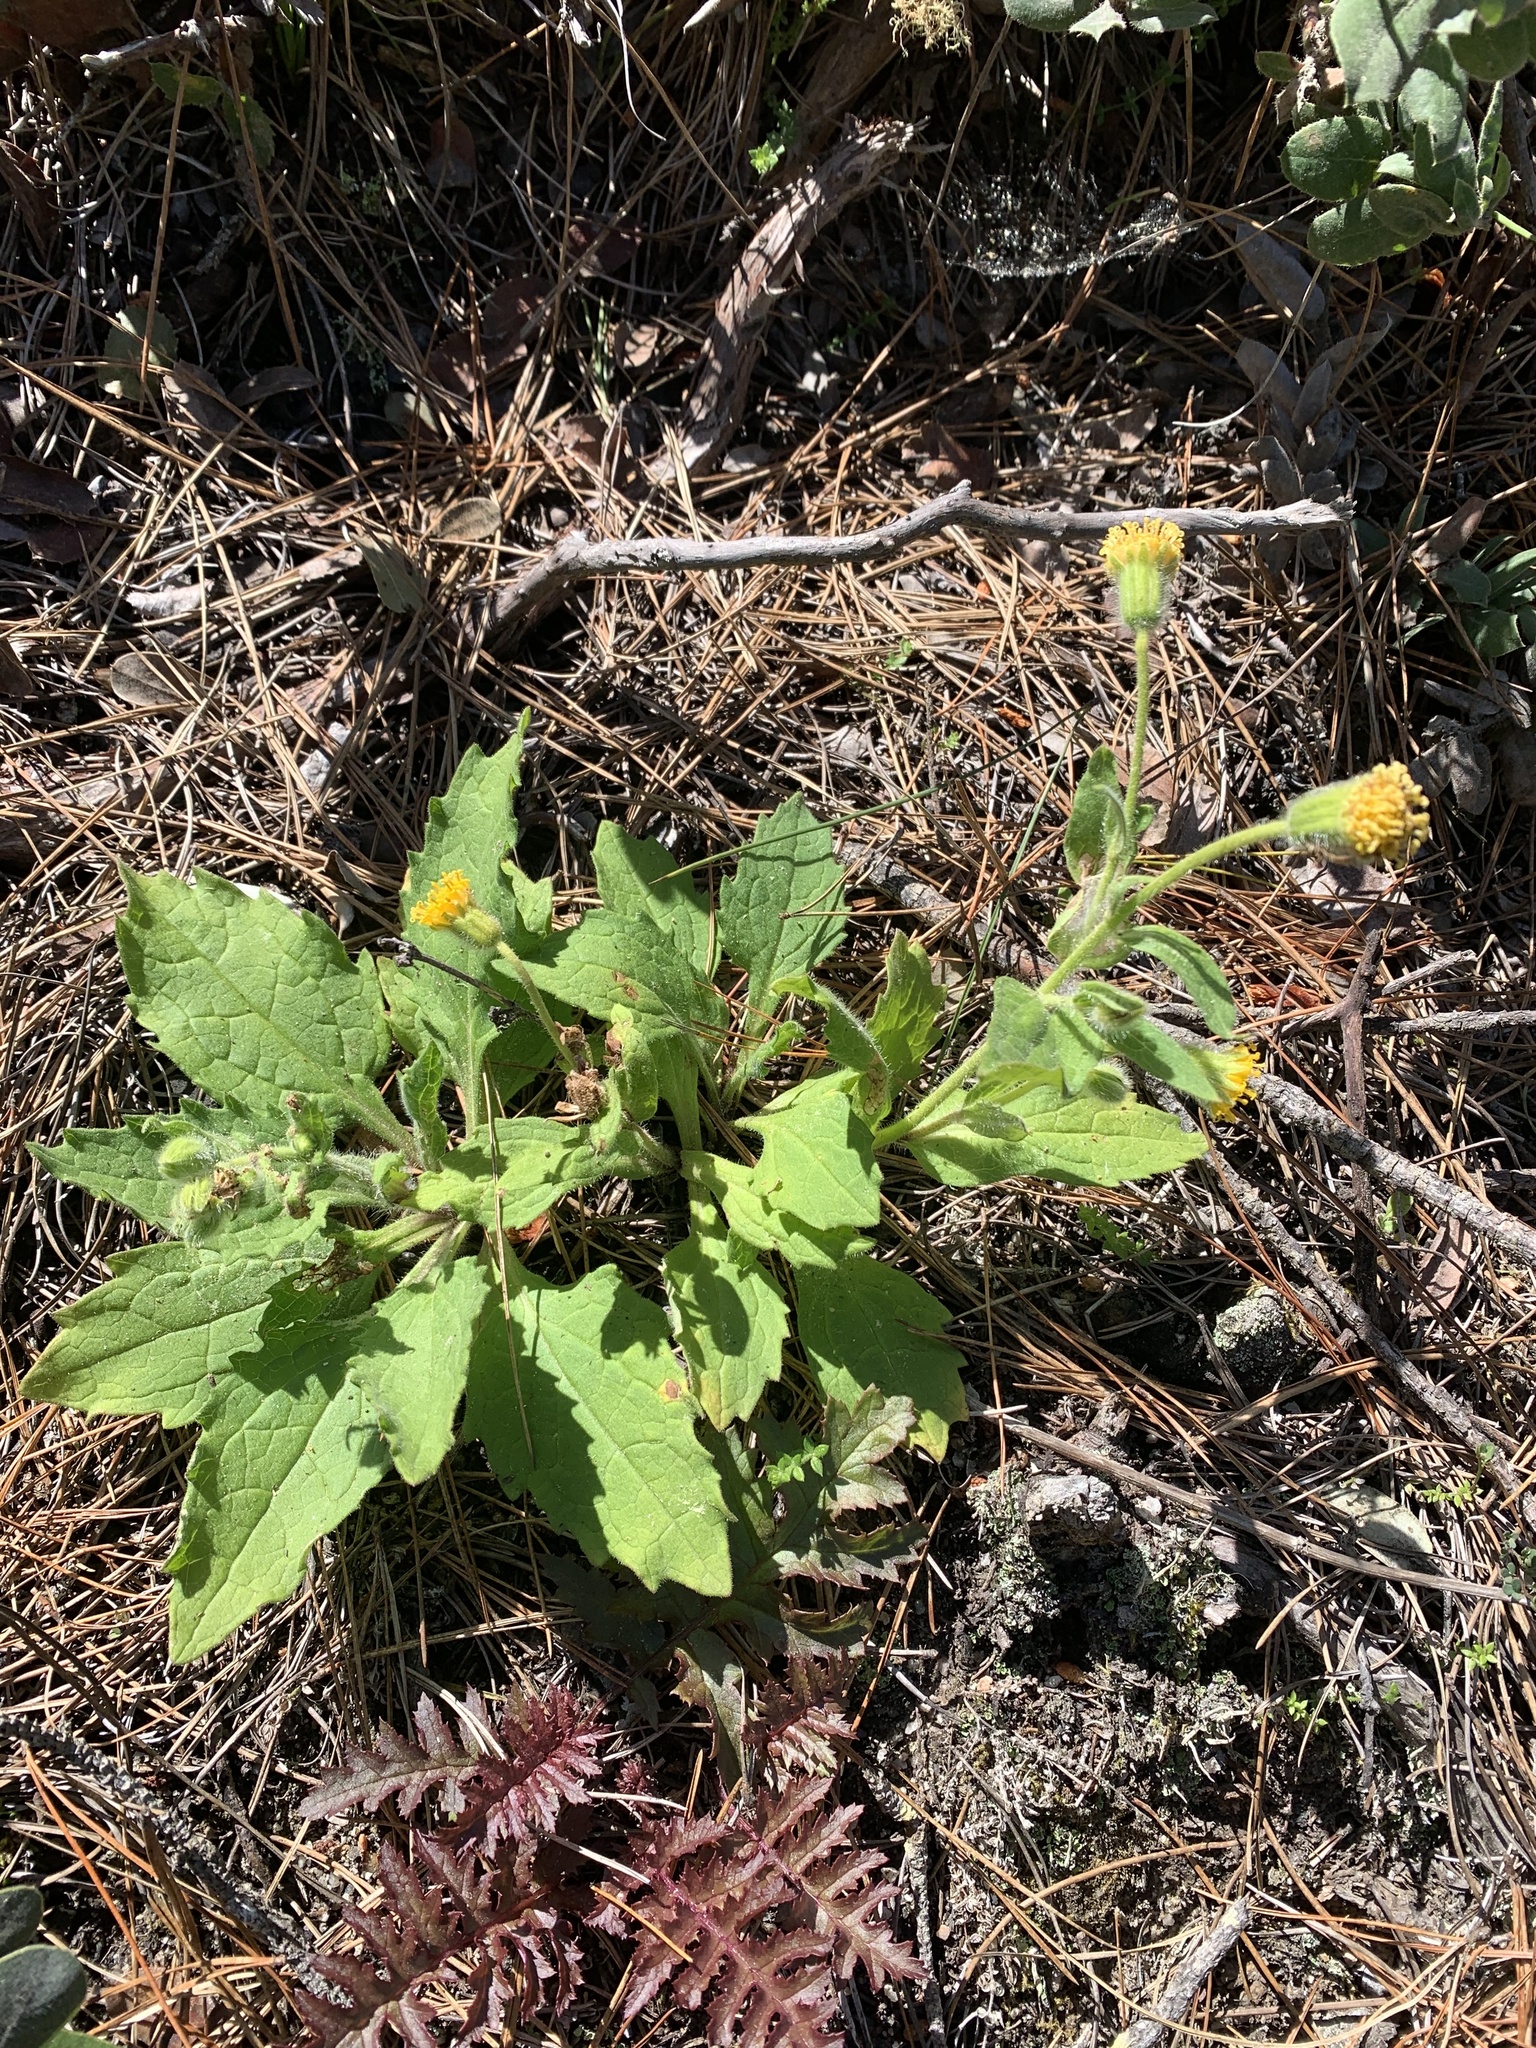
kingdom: Plantae
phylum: Tracheophyta
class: Magnoliopsida
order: Asterales
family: Asteraceae
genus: Arnica
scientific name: Arnica discoidea
